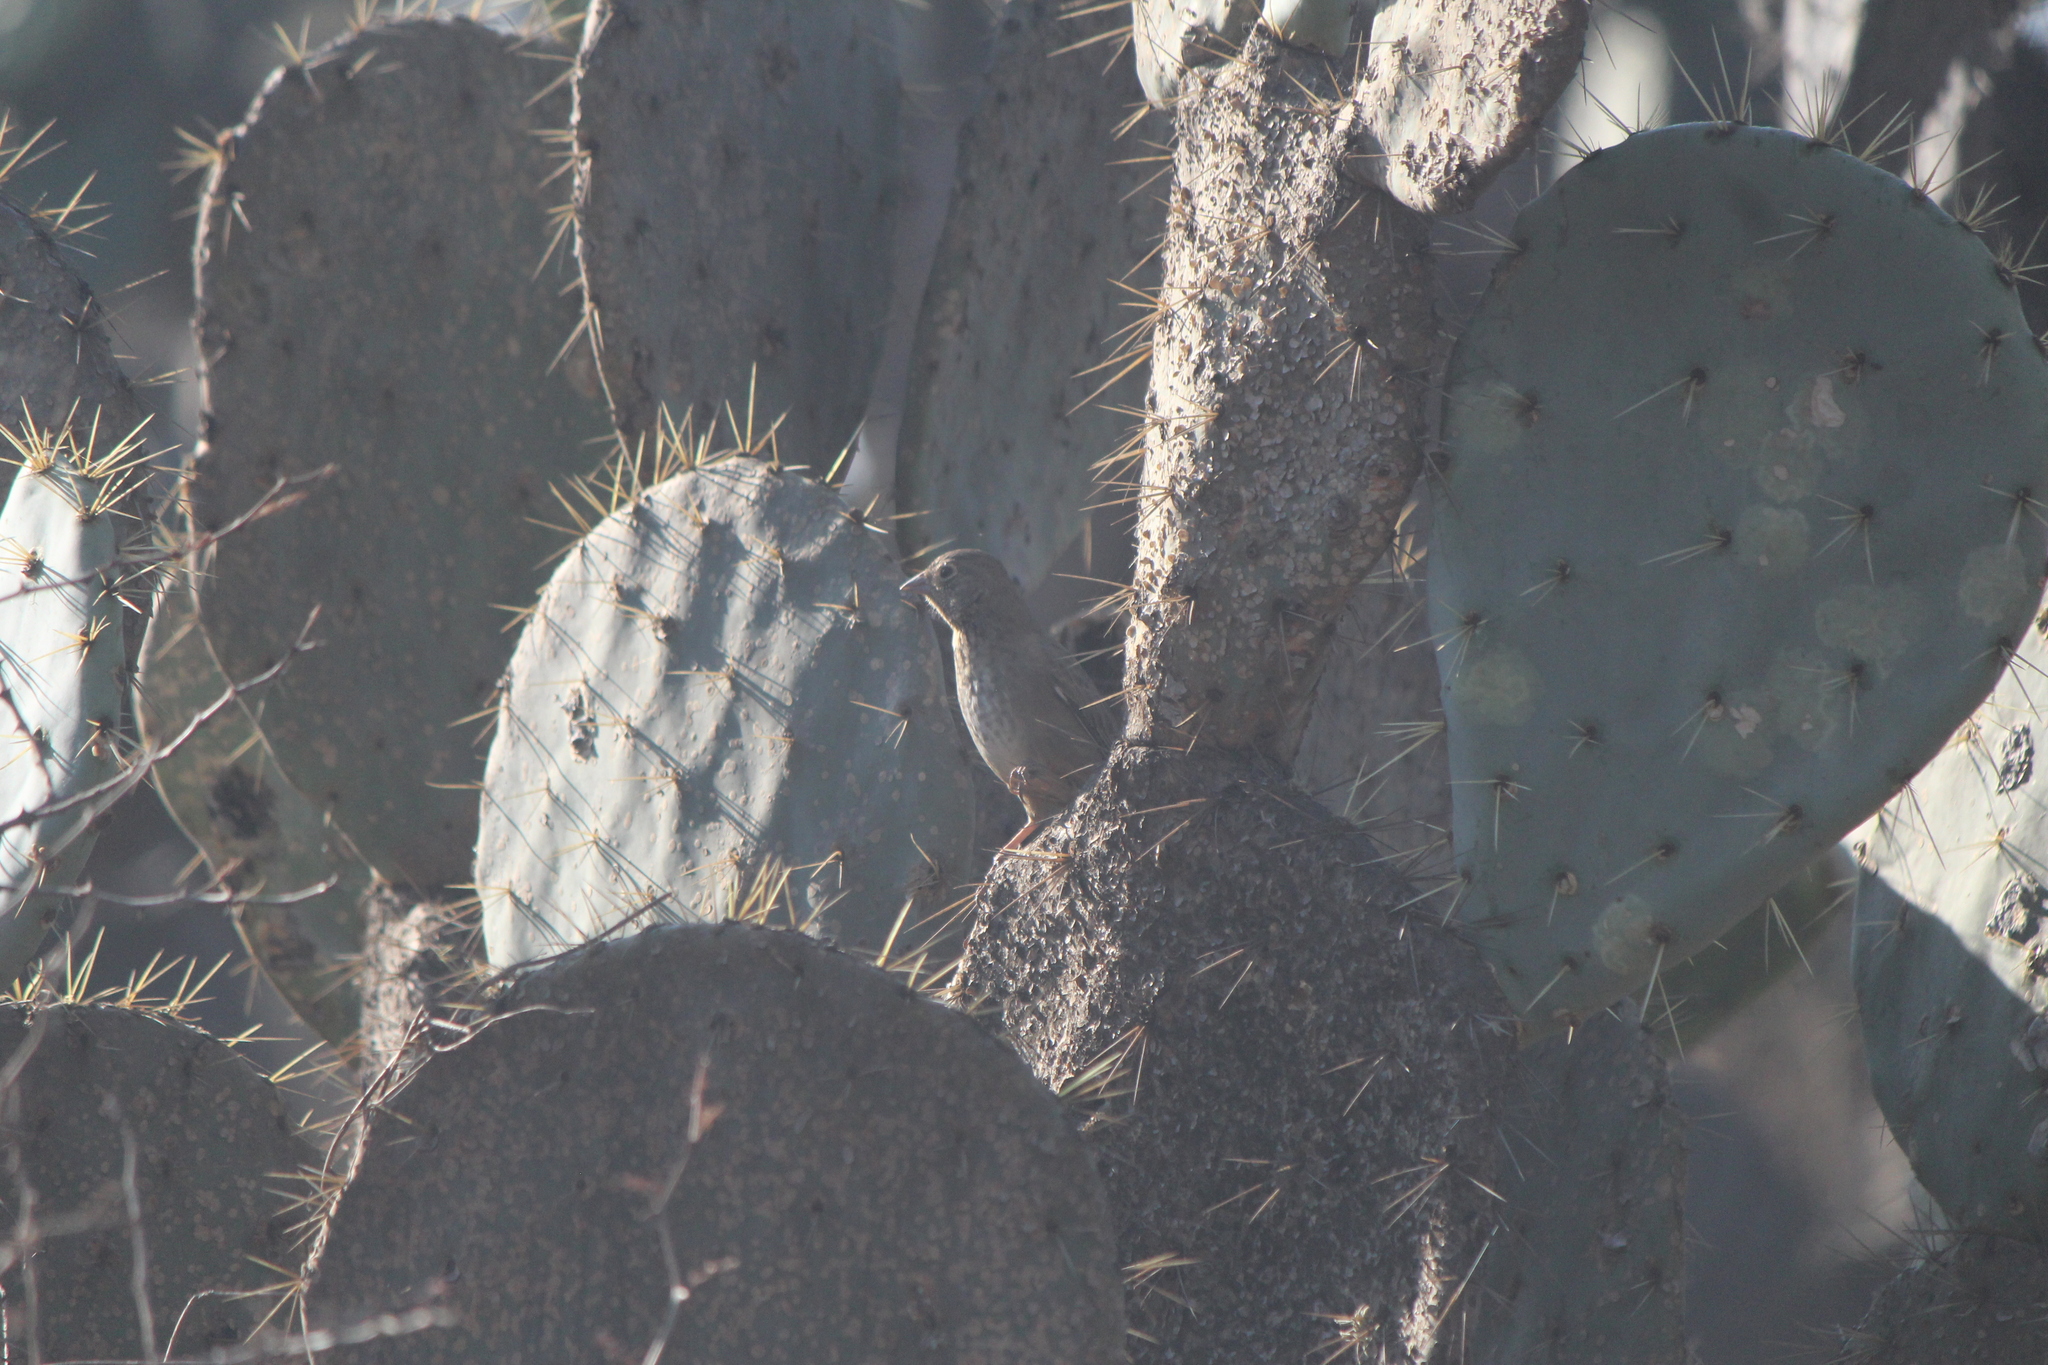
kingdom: Animalia
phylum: Chordata
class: Aves
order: Passeriformes
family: Passerellidae
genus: Melozone
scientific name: Melozone fusca
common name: Canyon towhee
